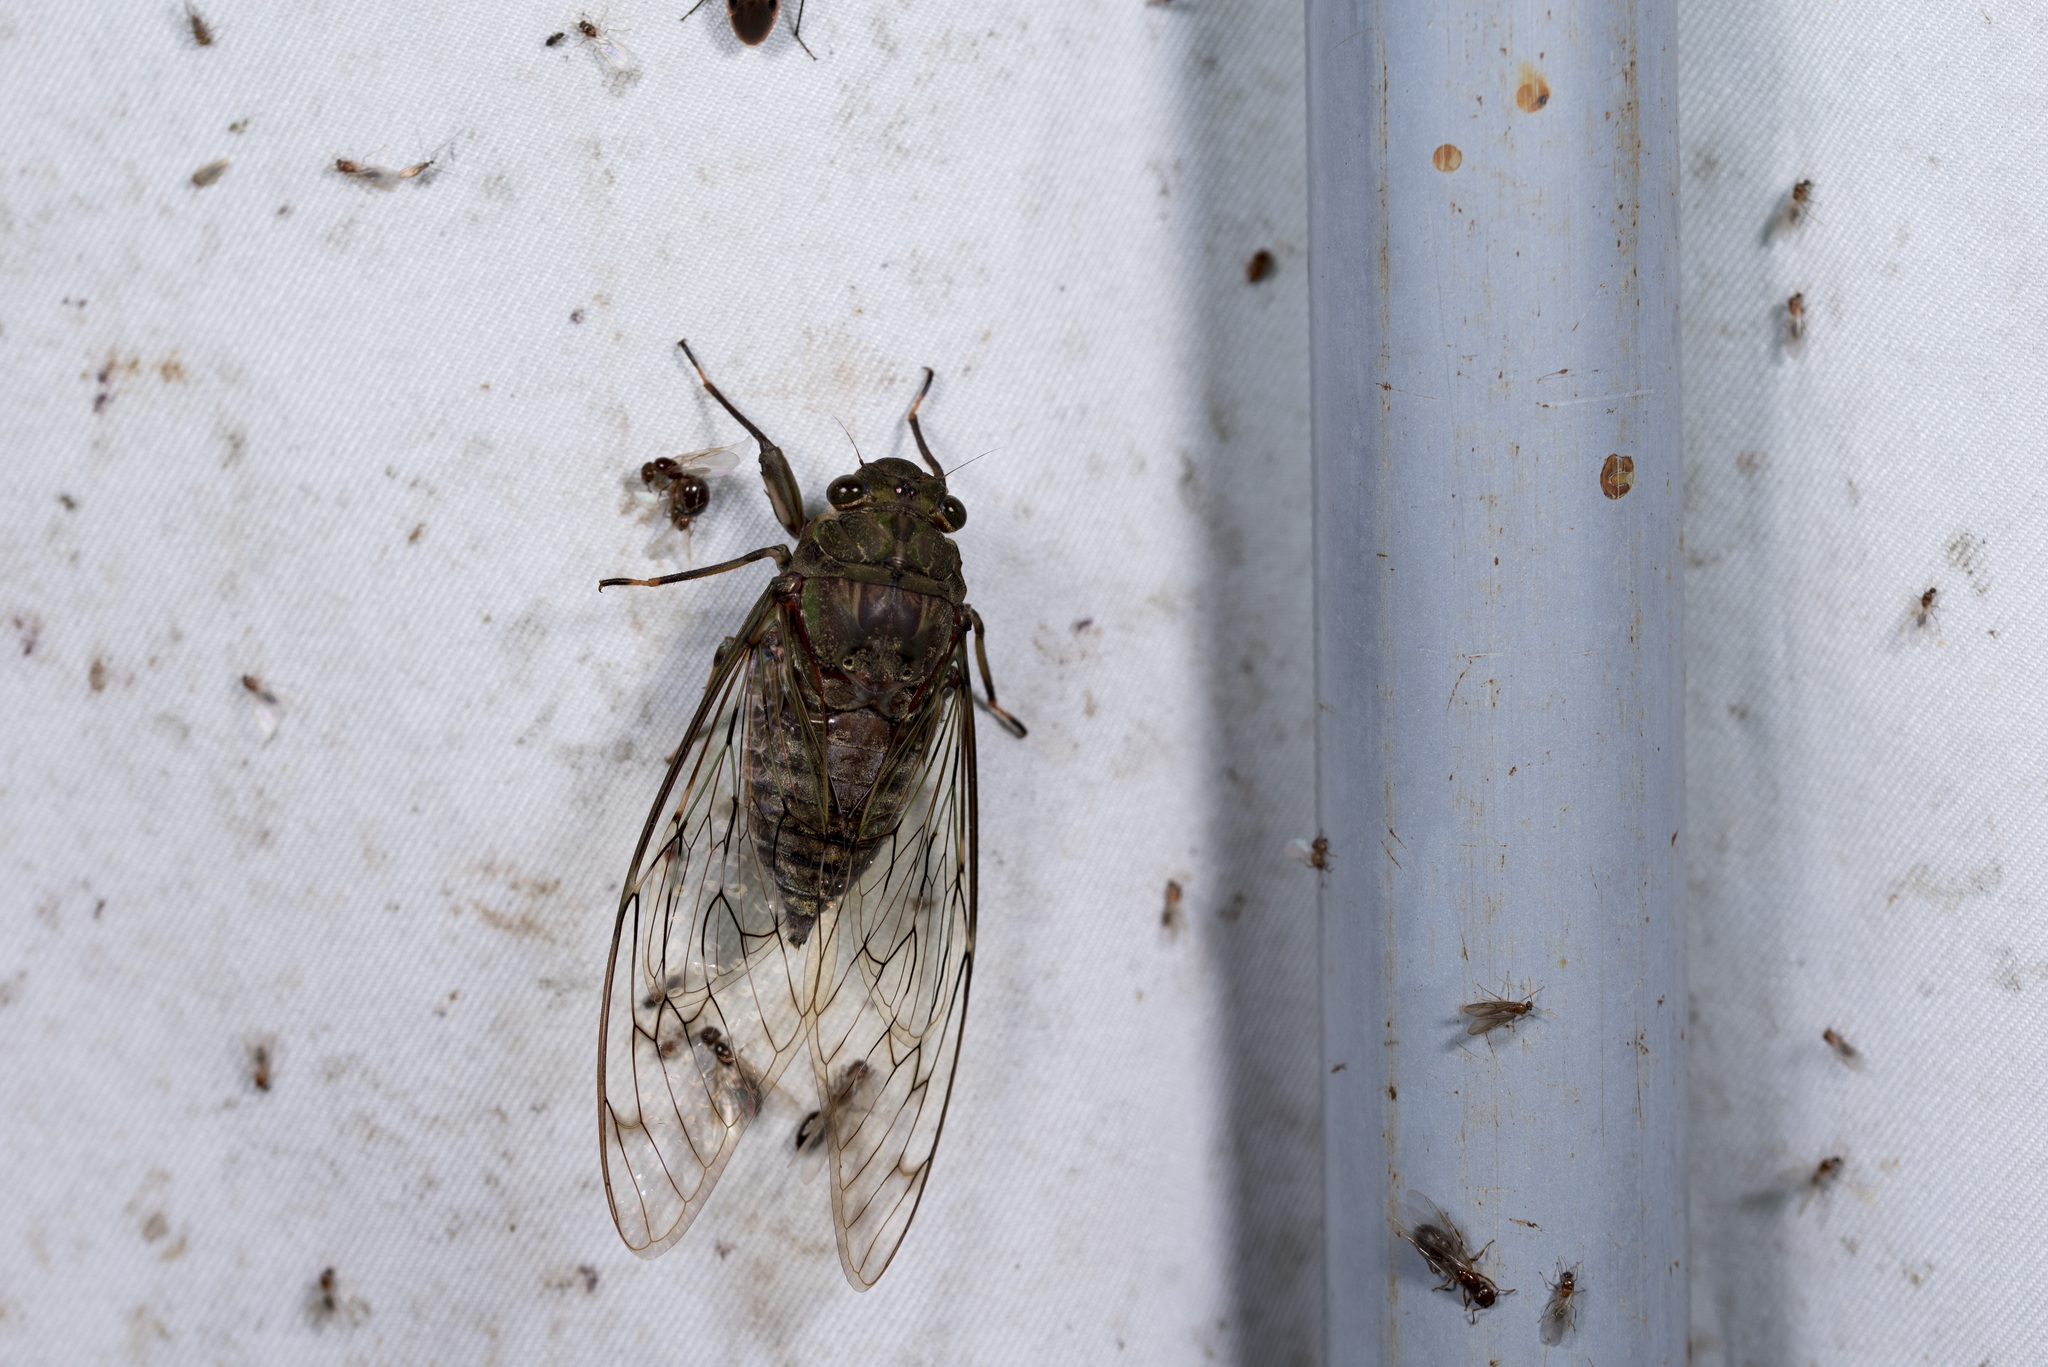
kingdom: Animalia
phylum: Arthropoda
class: Insecta
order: Hemiptera
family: Cicadidae
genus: Pomponia
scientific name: Pomponia yayeyamana
